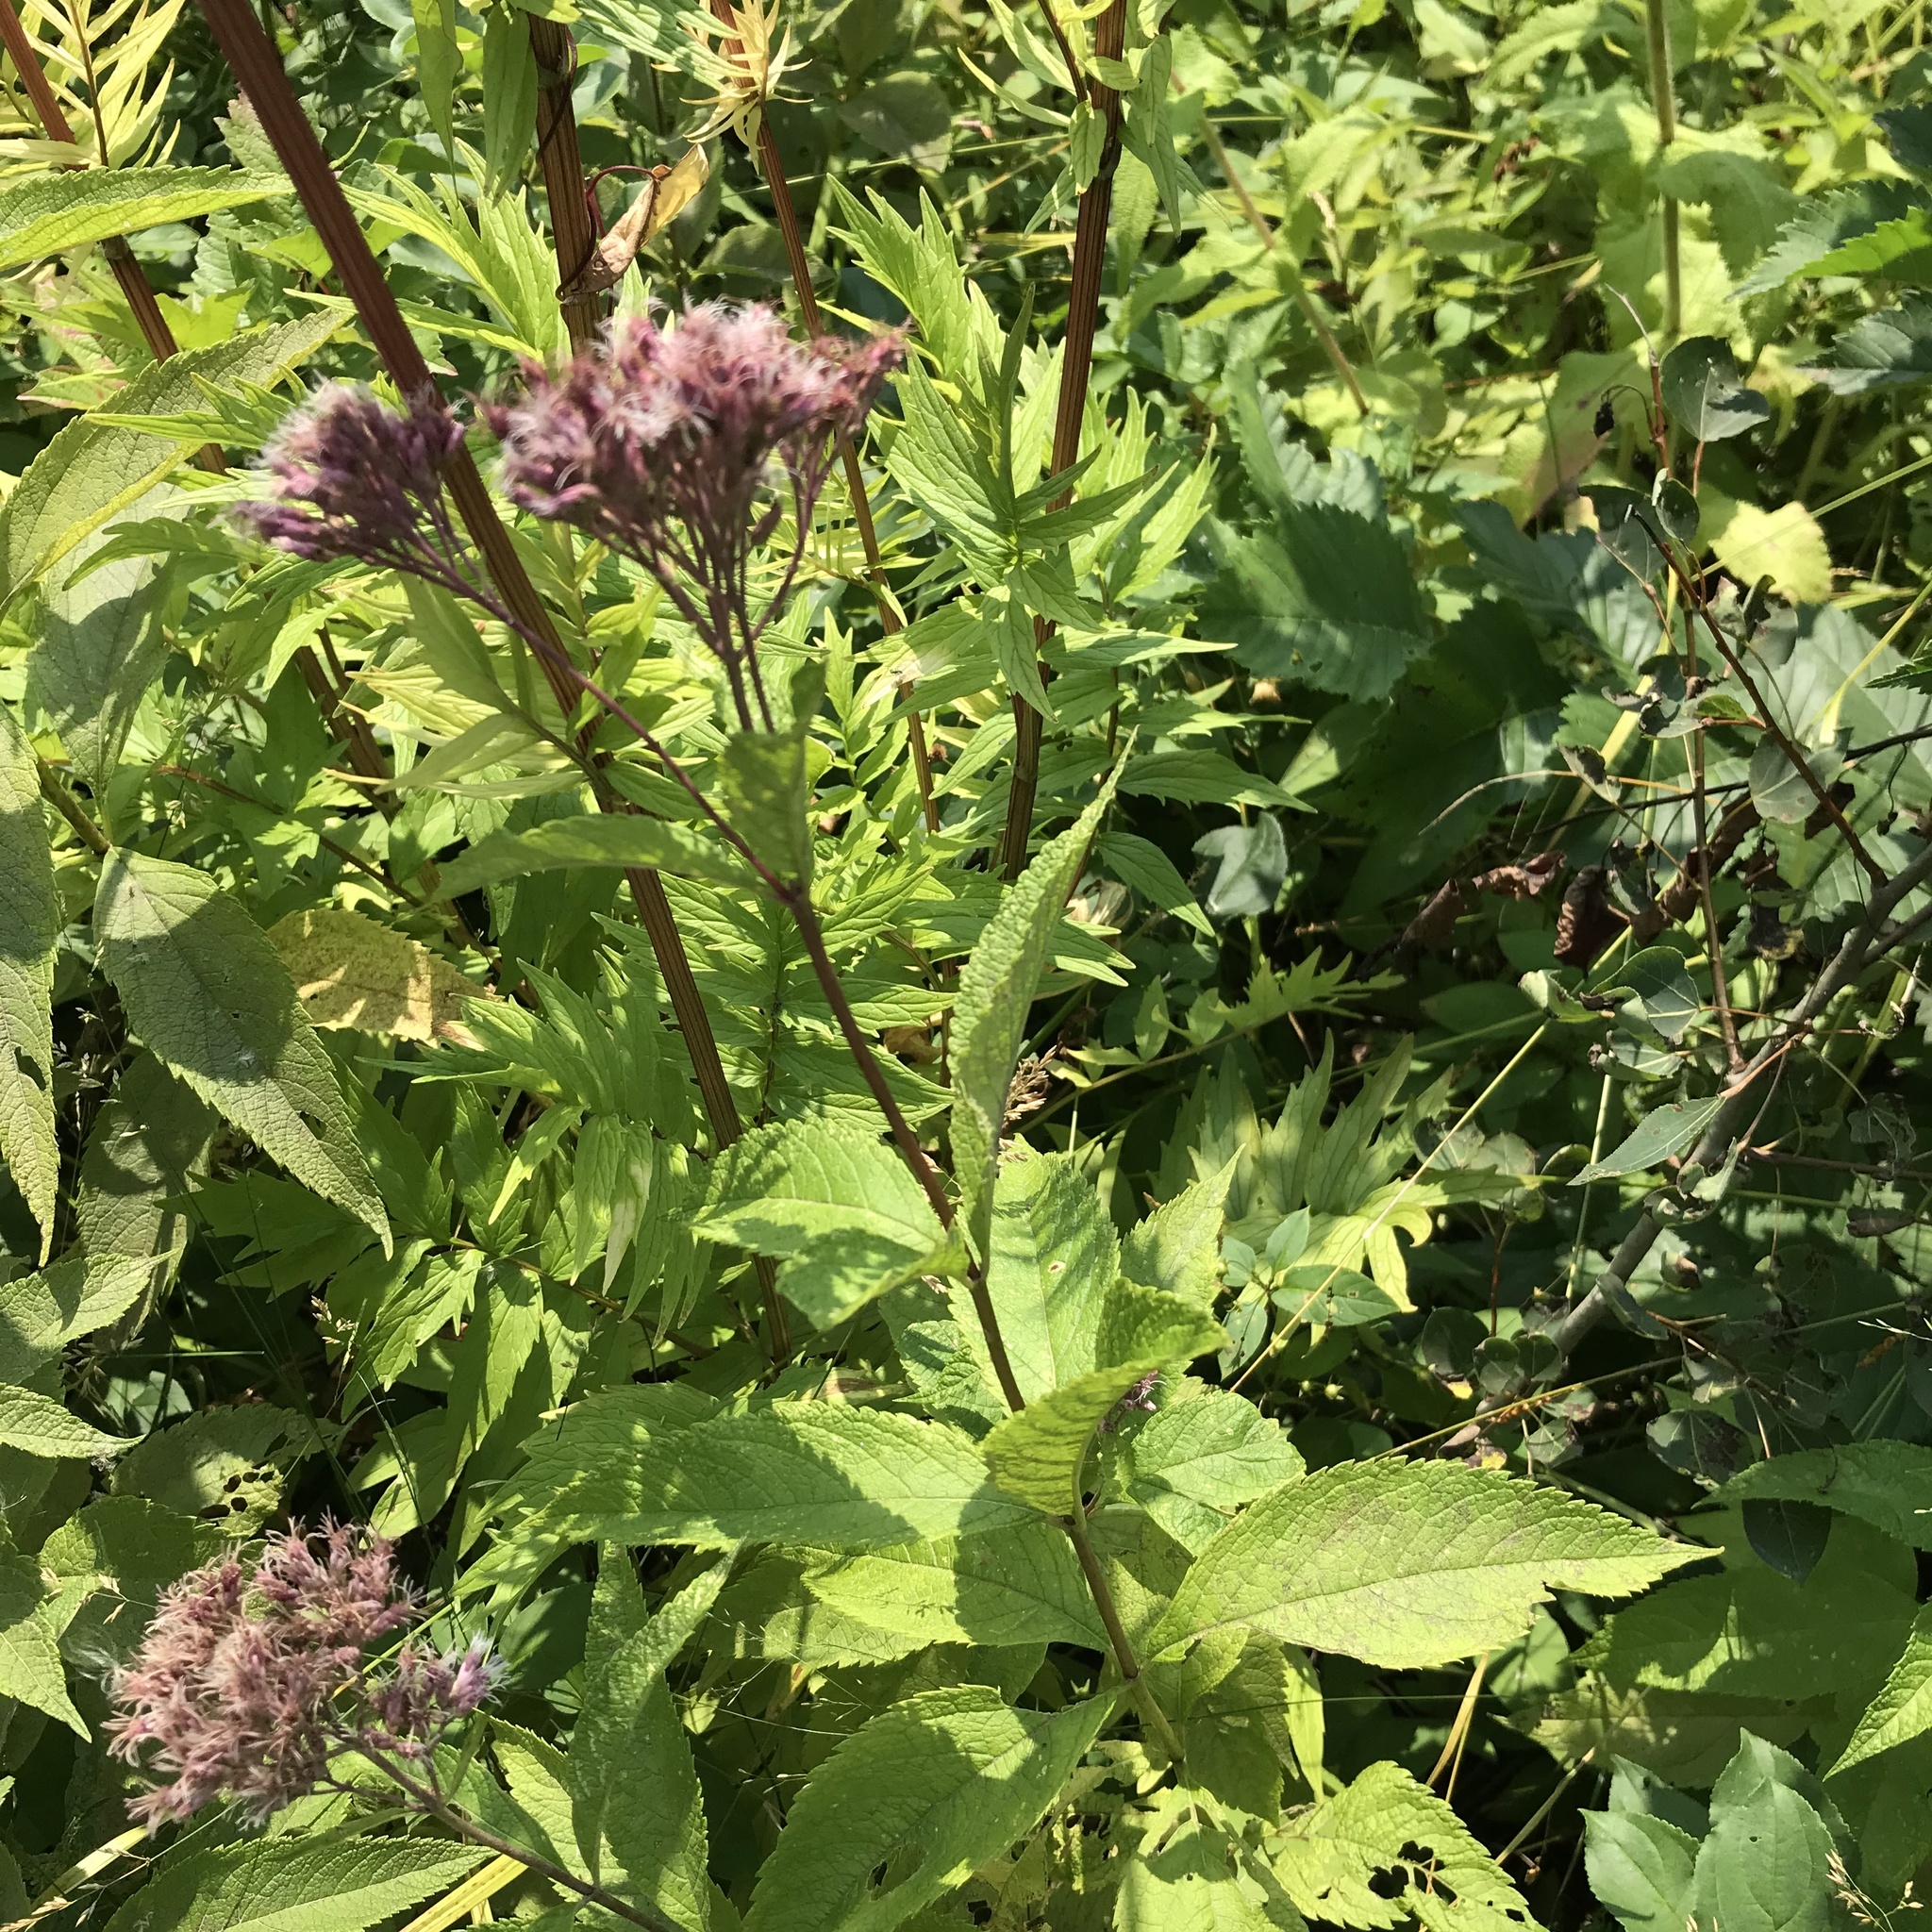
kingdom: Plantae
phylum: Tracheophyta
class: Magnoliopsida
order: Asterales
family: Asteraceae
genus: Eutrochium
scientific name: Eutrochium maculatum
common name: Spotted joe pye weed
